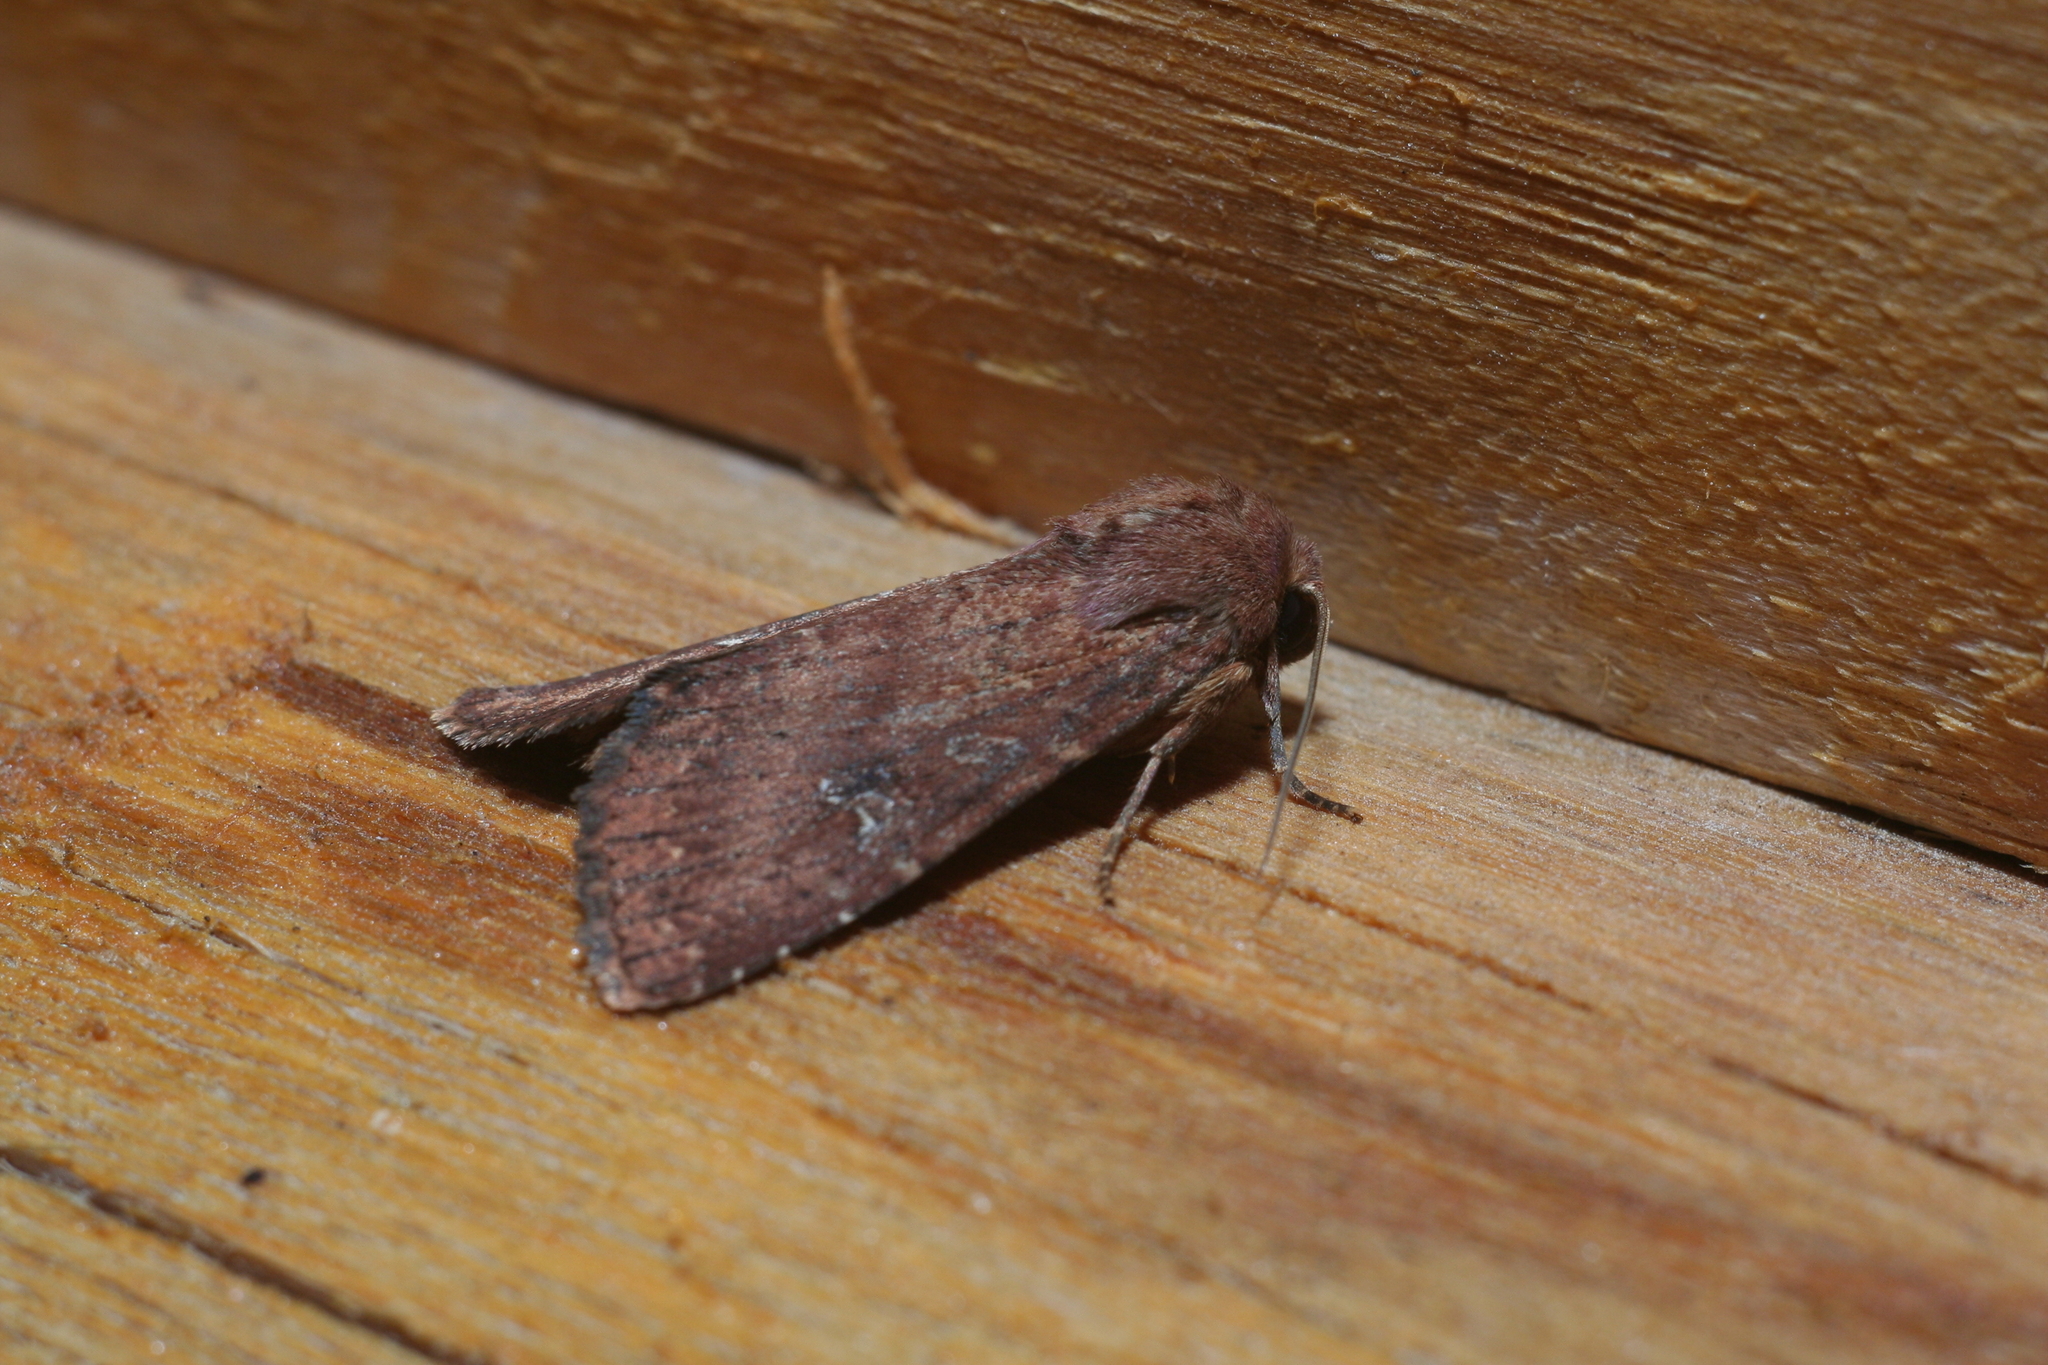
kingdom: Animalia
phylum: Arthropoda
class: Insecta
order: Lepidoptera
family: Noctuidae
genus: Apamea
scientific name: Apamea lateritia
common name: Scarce brindle
